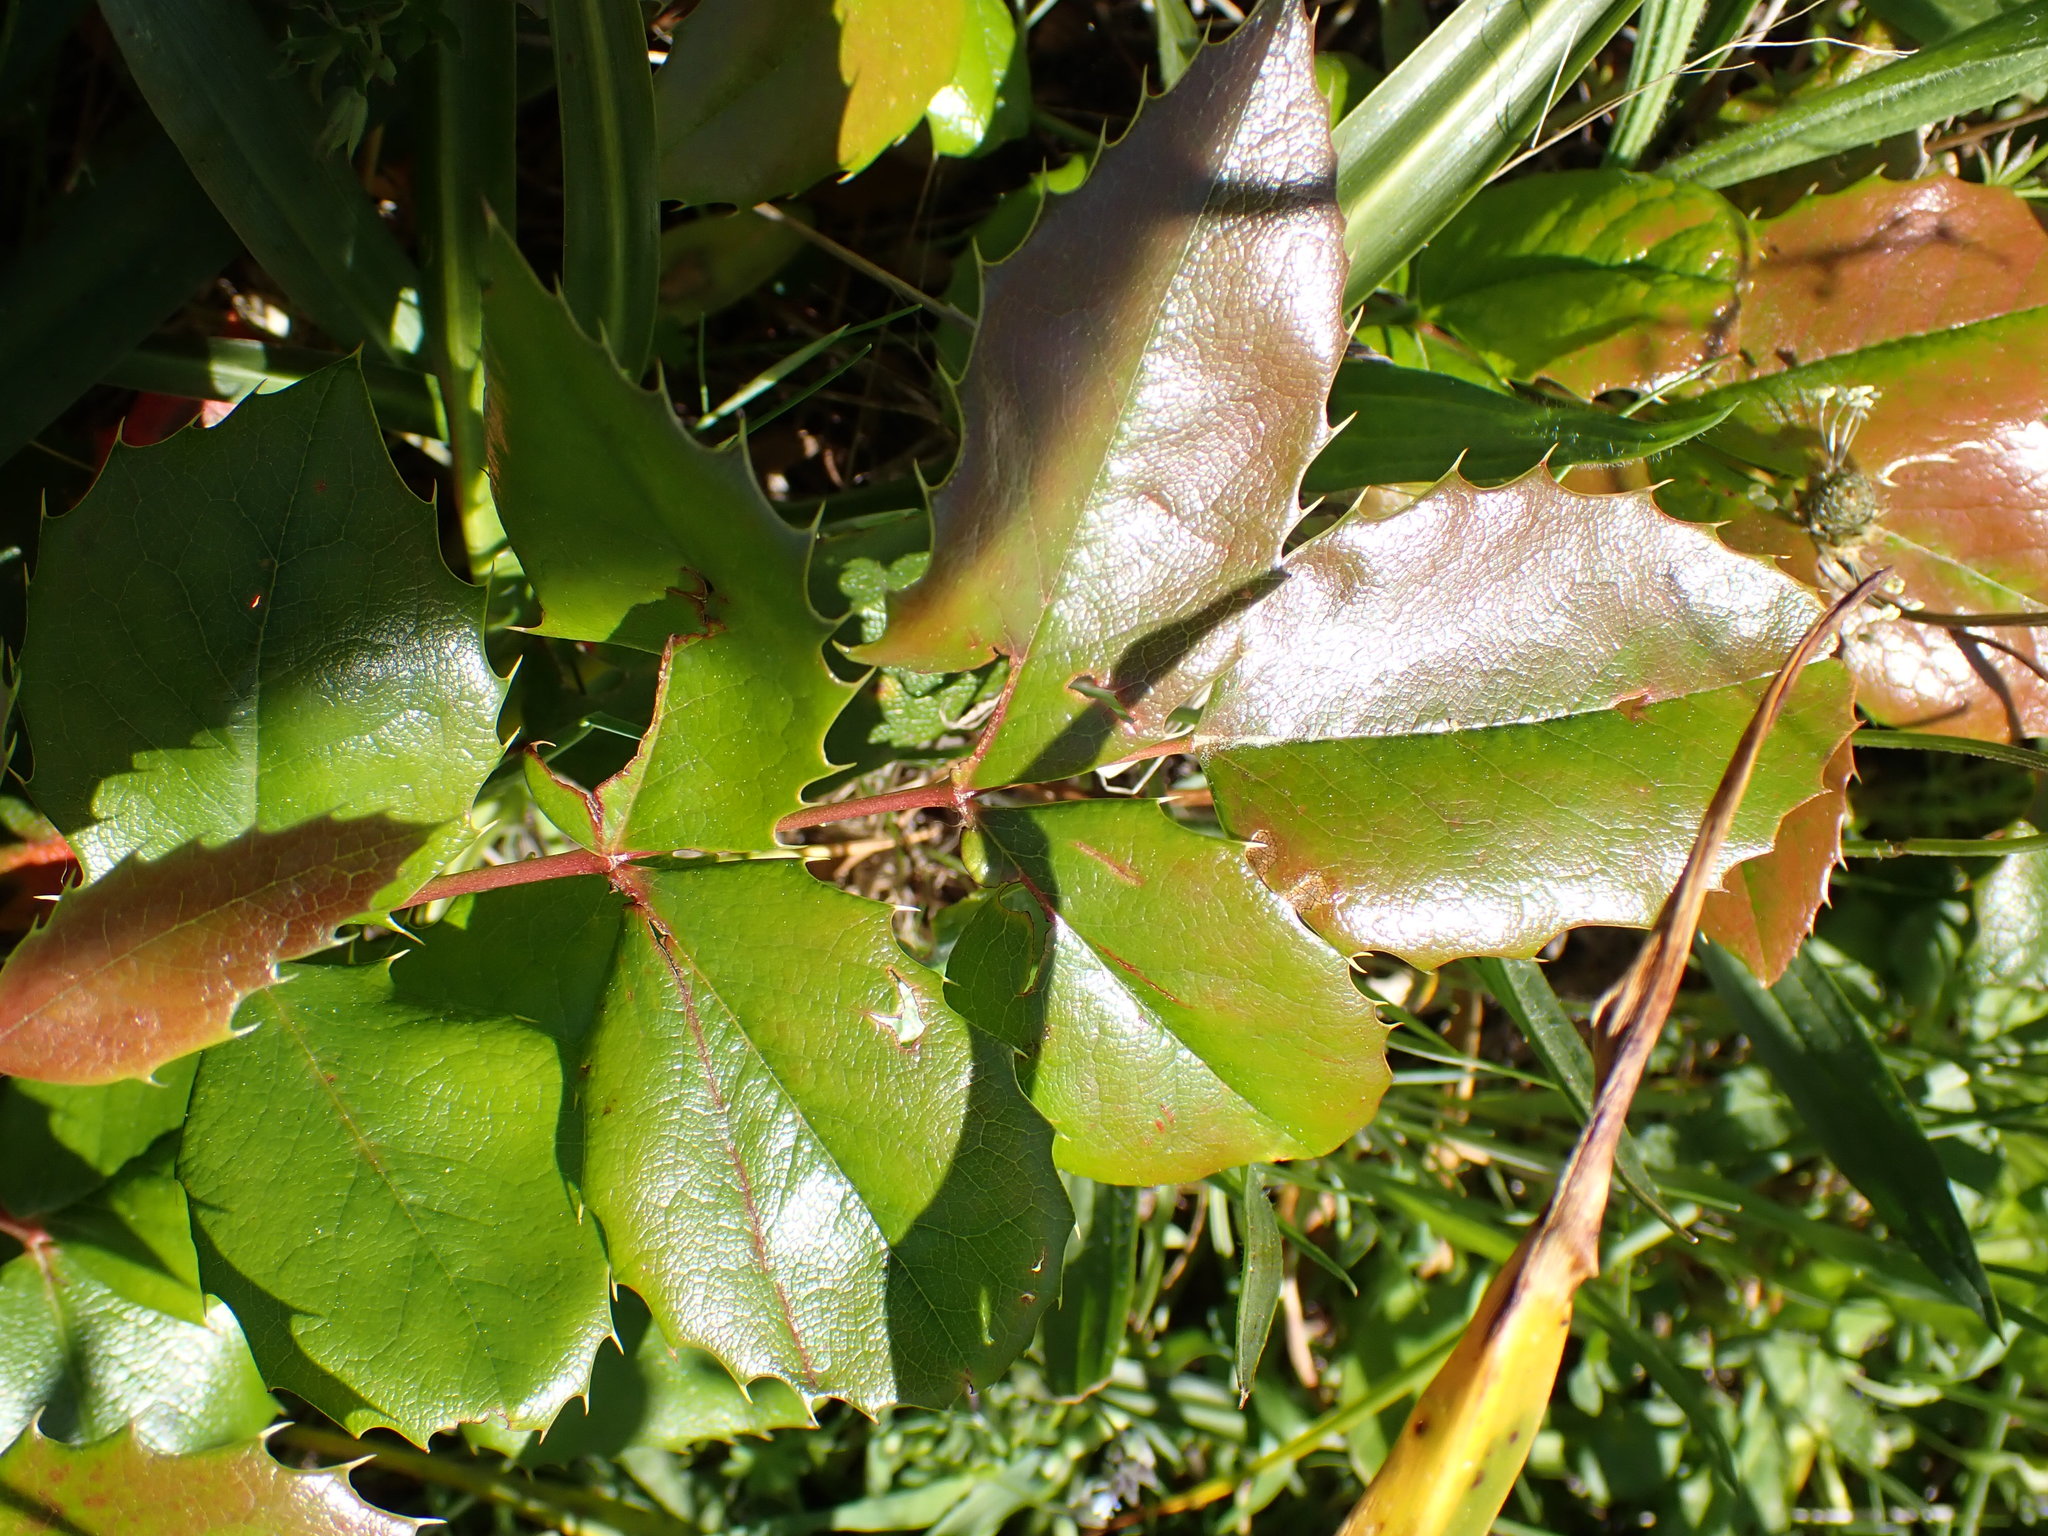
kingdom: Plantae
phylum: Tracheophyta
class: Magnoliopsida
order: Ranunculales
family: Berberidaceae
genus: Mahonia
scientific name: Mahonia aquifolium
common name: Oregon-grape
